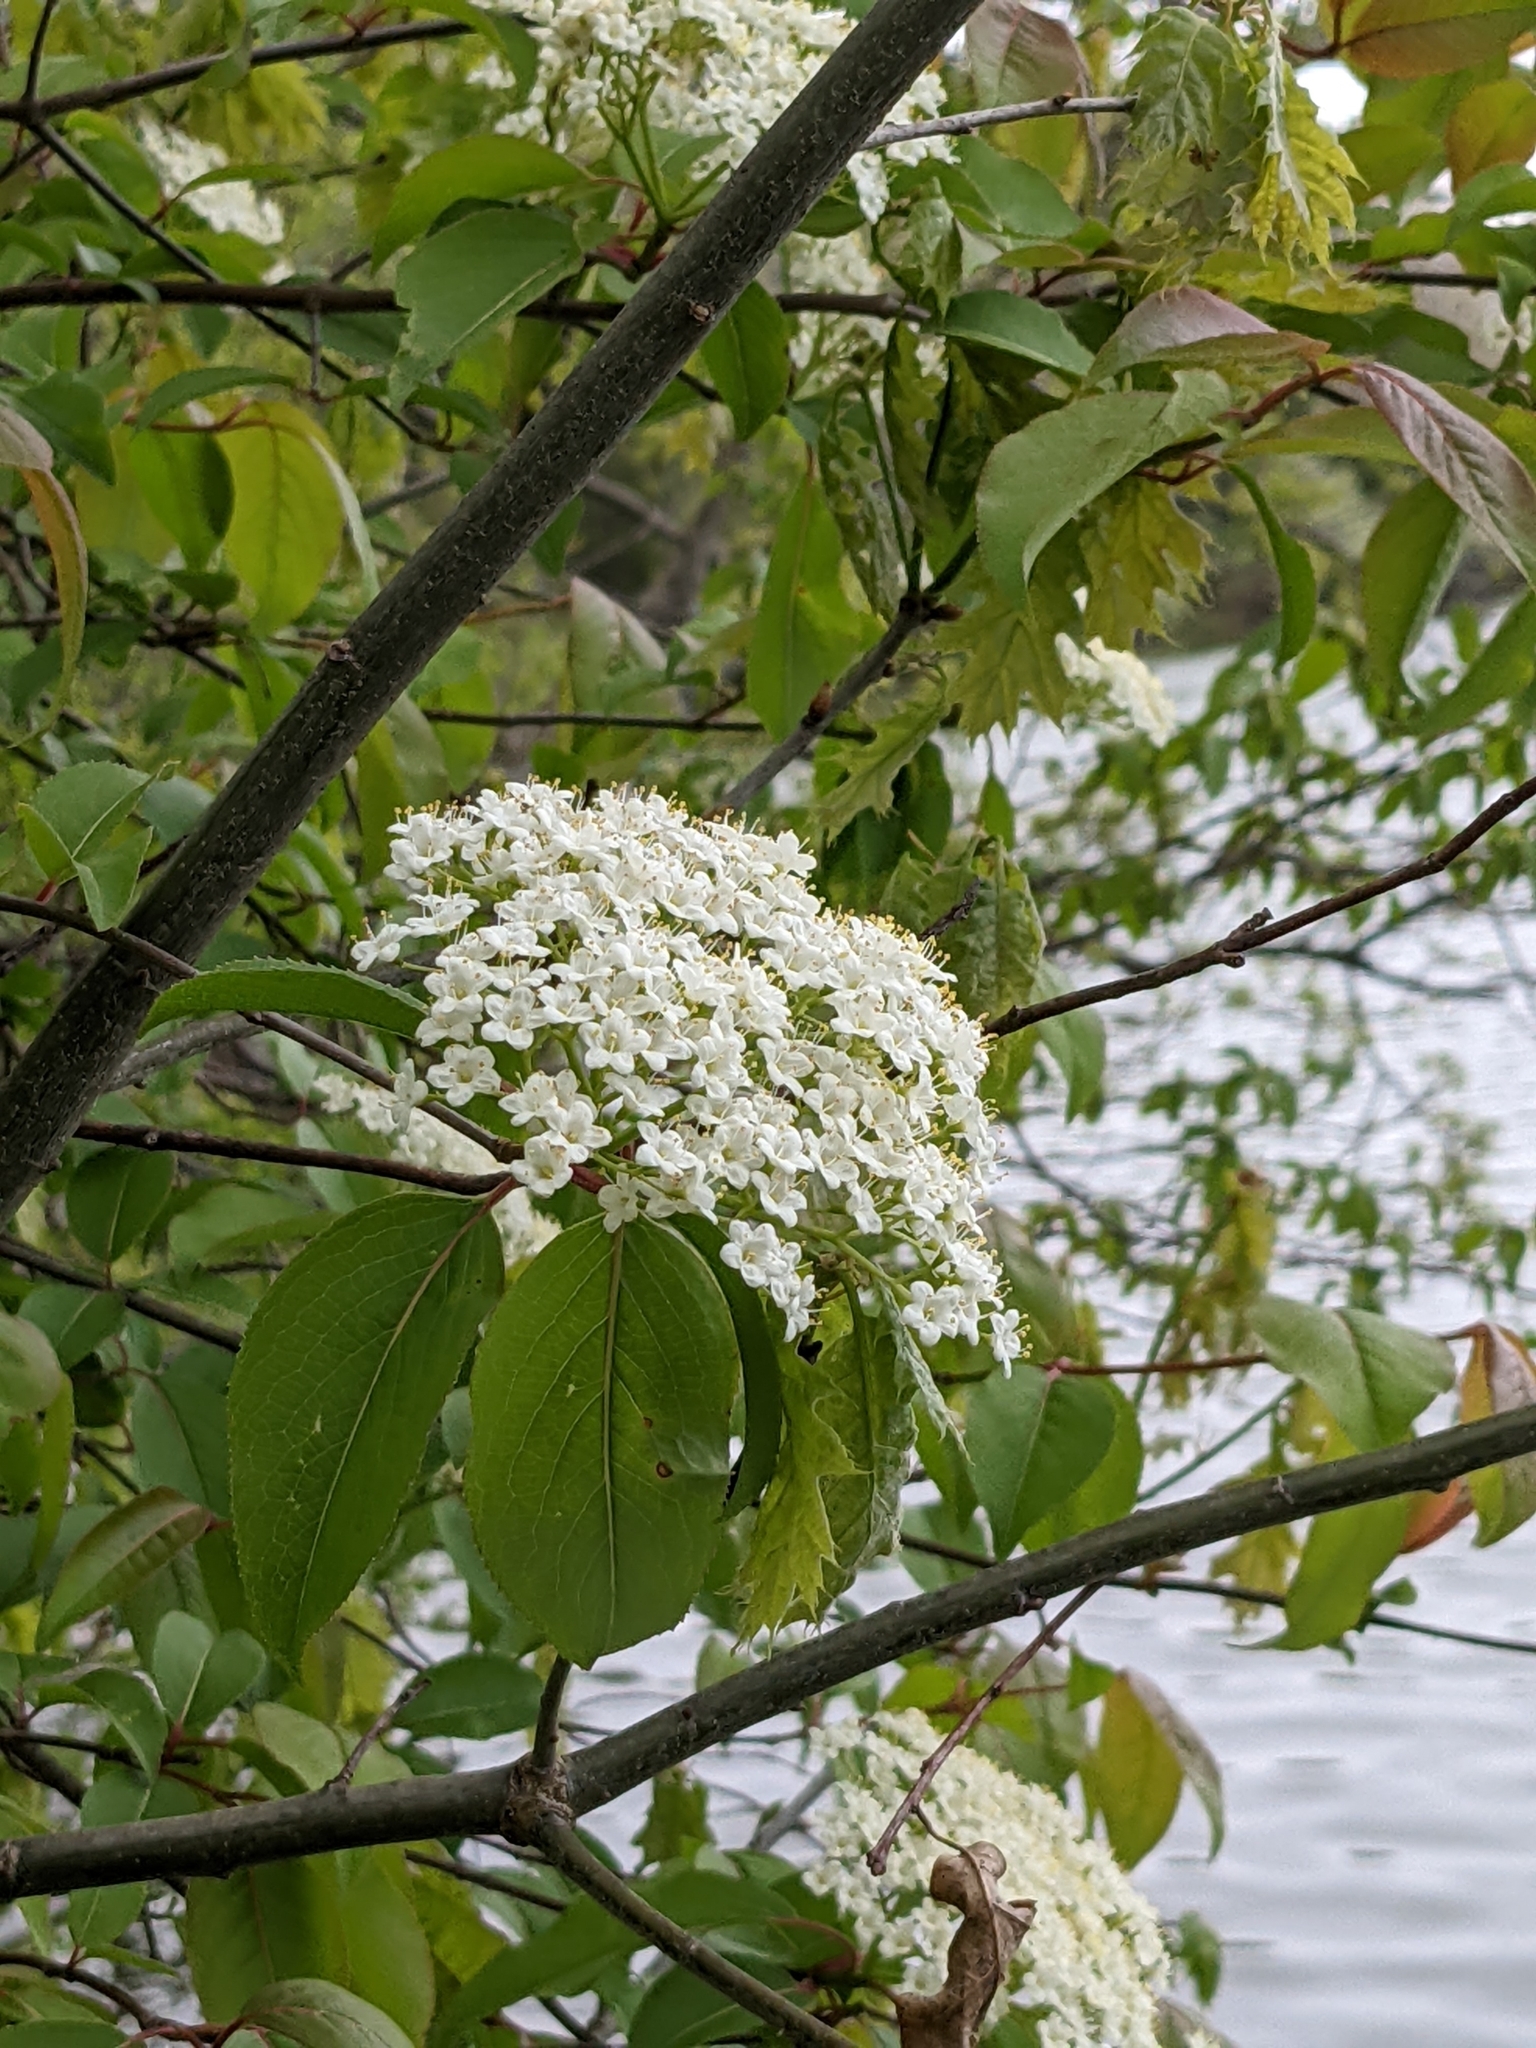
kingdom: Plantae
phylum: Tracheophyta
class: Magnoliopsida
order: Dipsacales
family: Viburnaceae
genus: Viburnum
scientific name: Viburnum prunifolium
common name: Black haw
